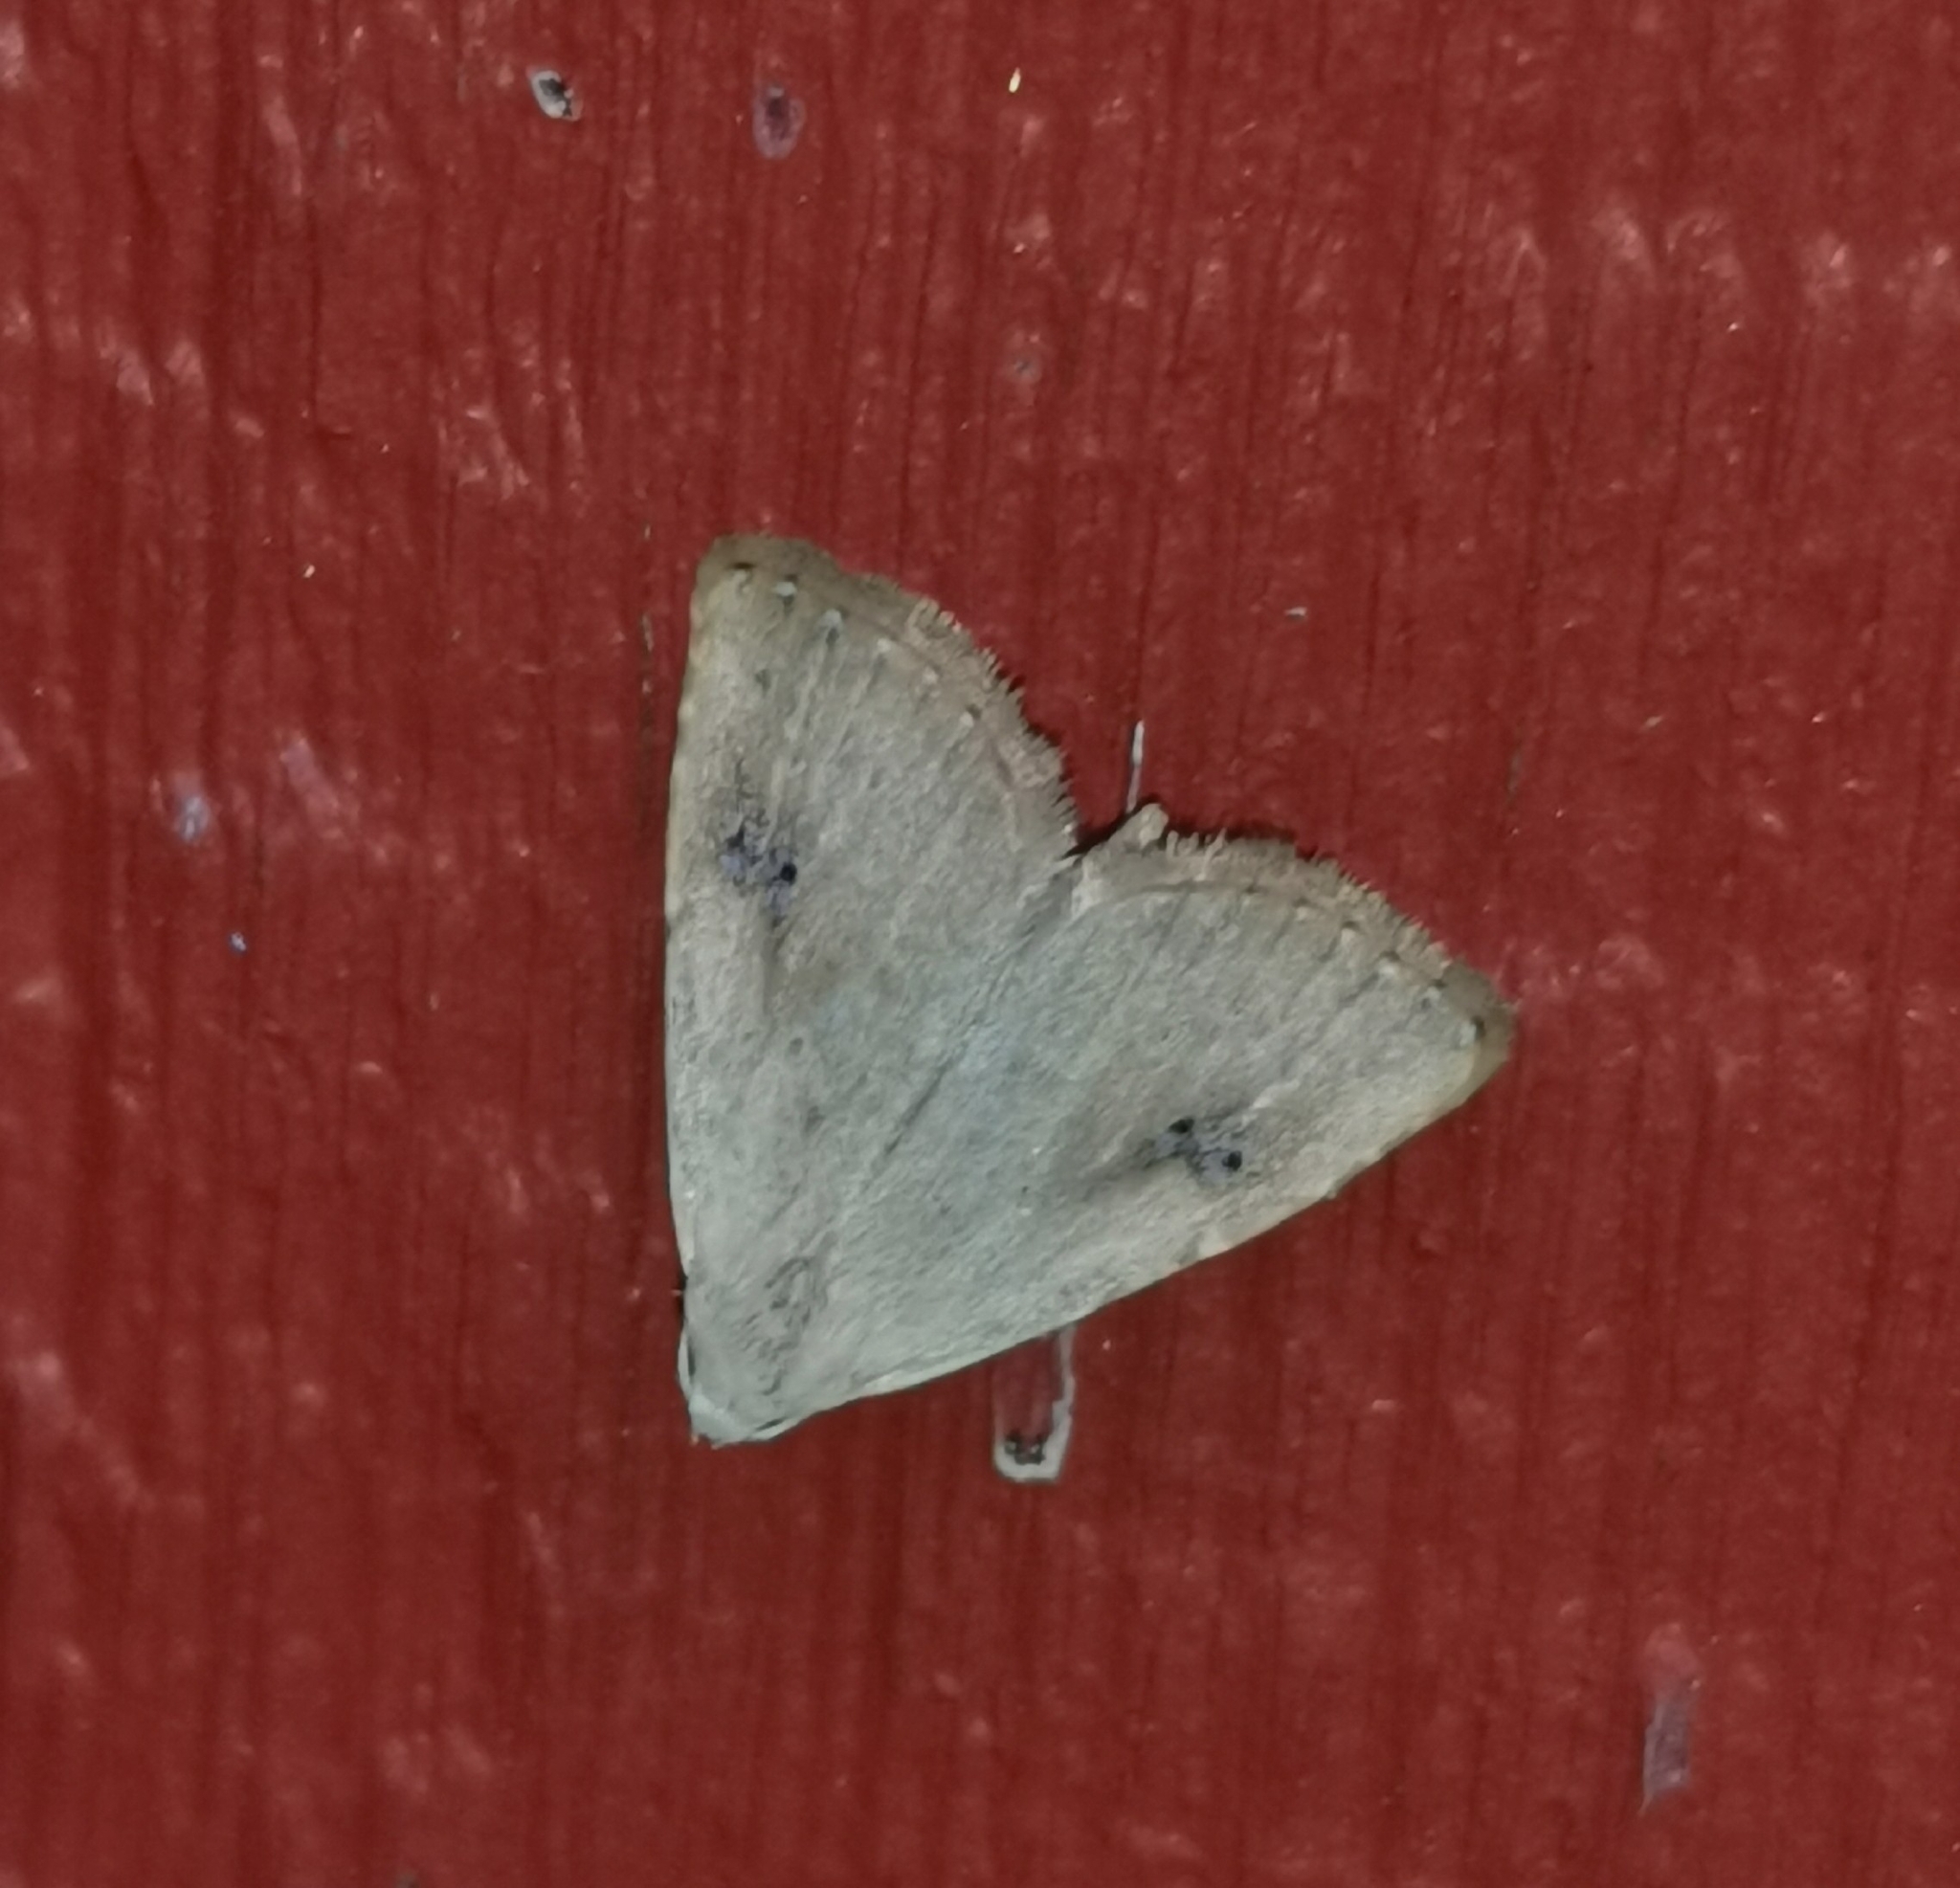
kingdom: Animalia
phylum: Arthropoda
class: Insecta
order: Lepidoptera
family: Erebidae
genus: Rivula
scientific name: Rivula sericealis
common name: Straw dot
